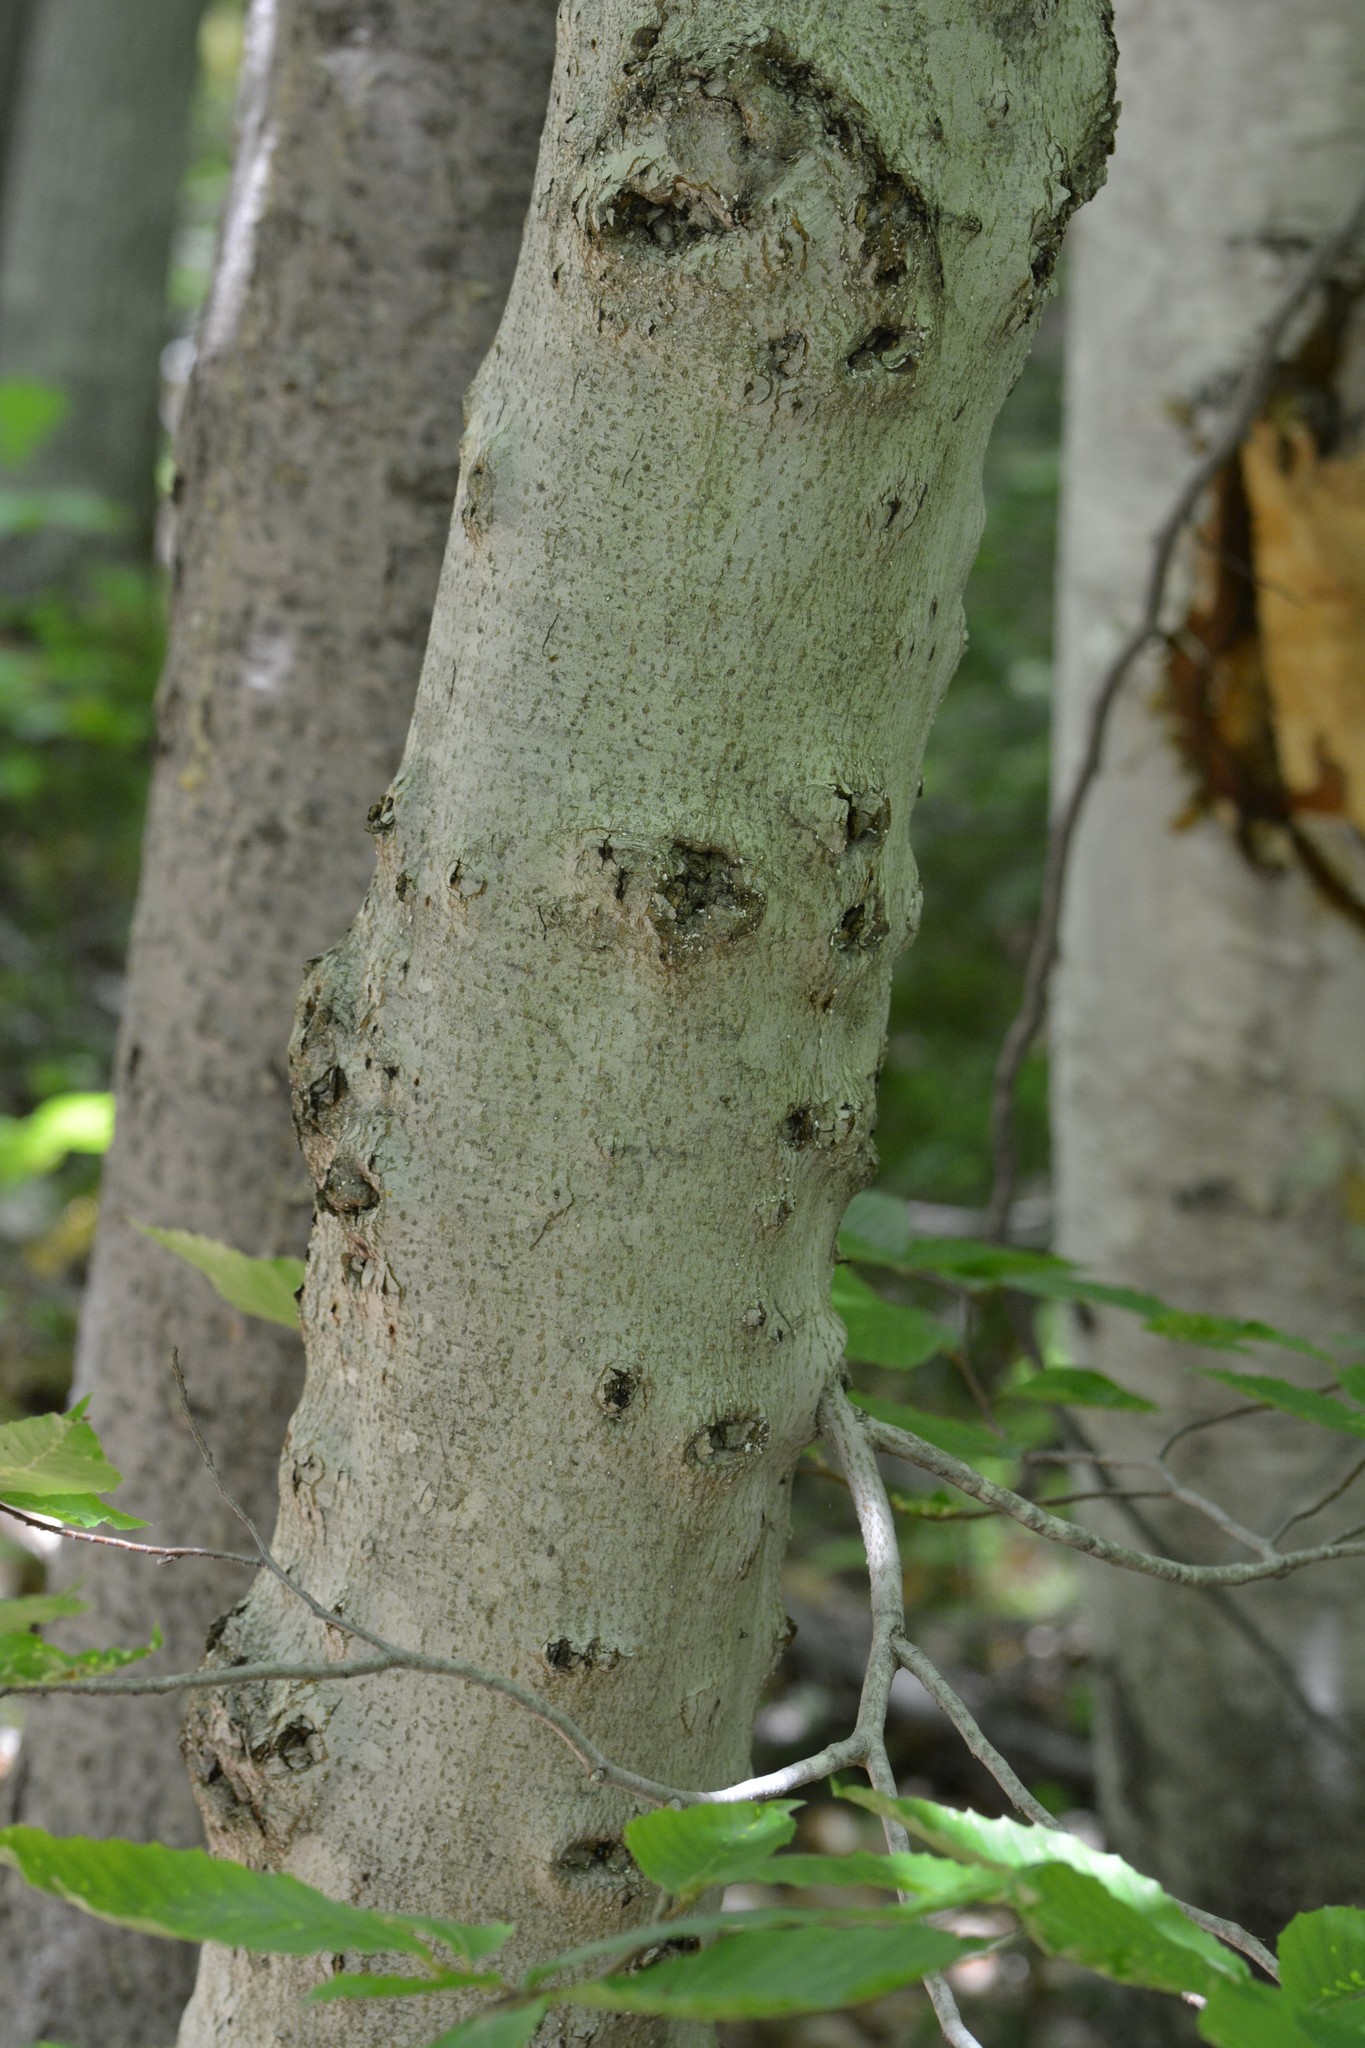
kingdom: Plantae
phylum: Tracheophyta
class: Magnoliopsida
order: Fagales
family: Fagaceae
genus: Fagus
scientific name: Fagus grandifolia
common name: American beech
